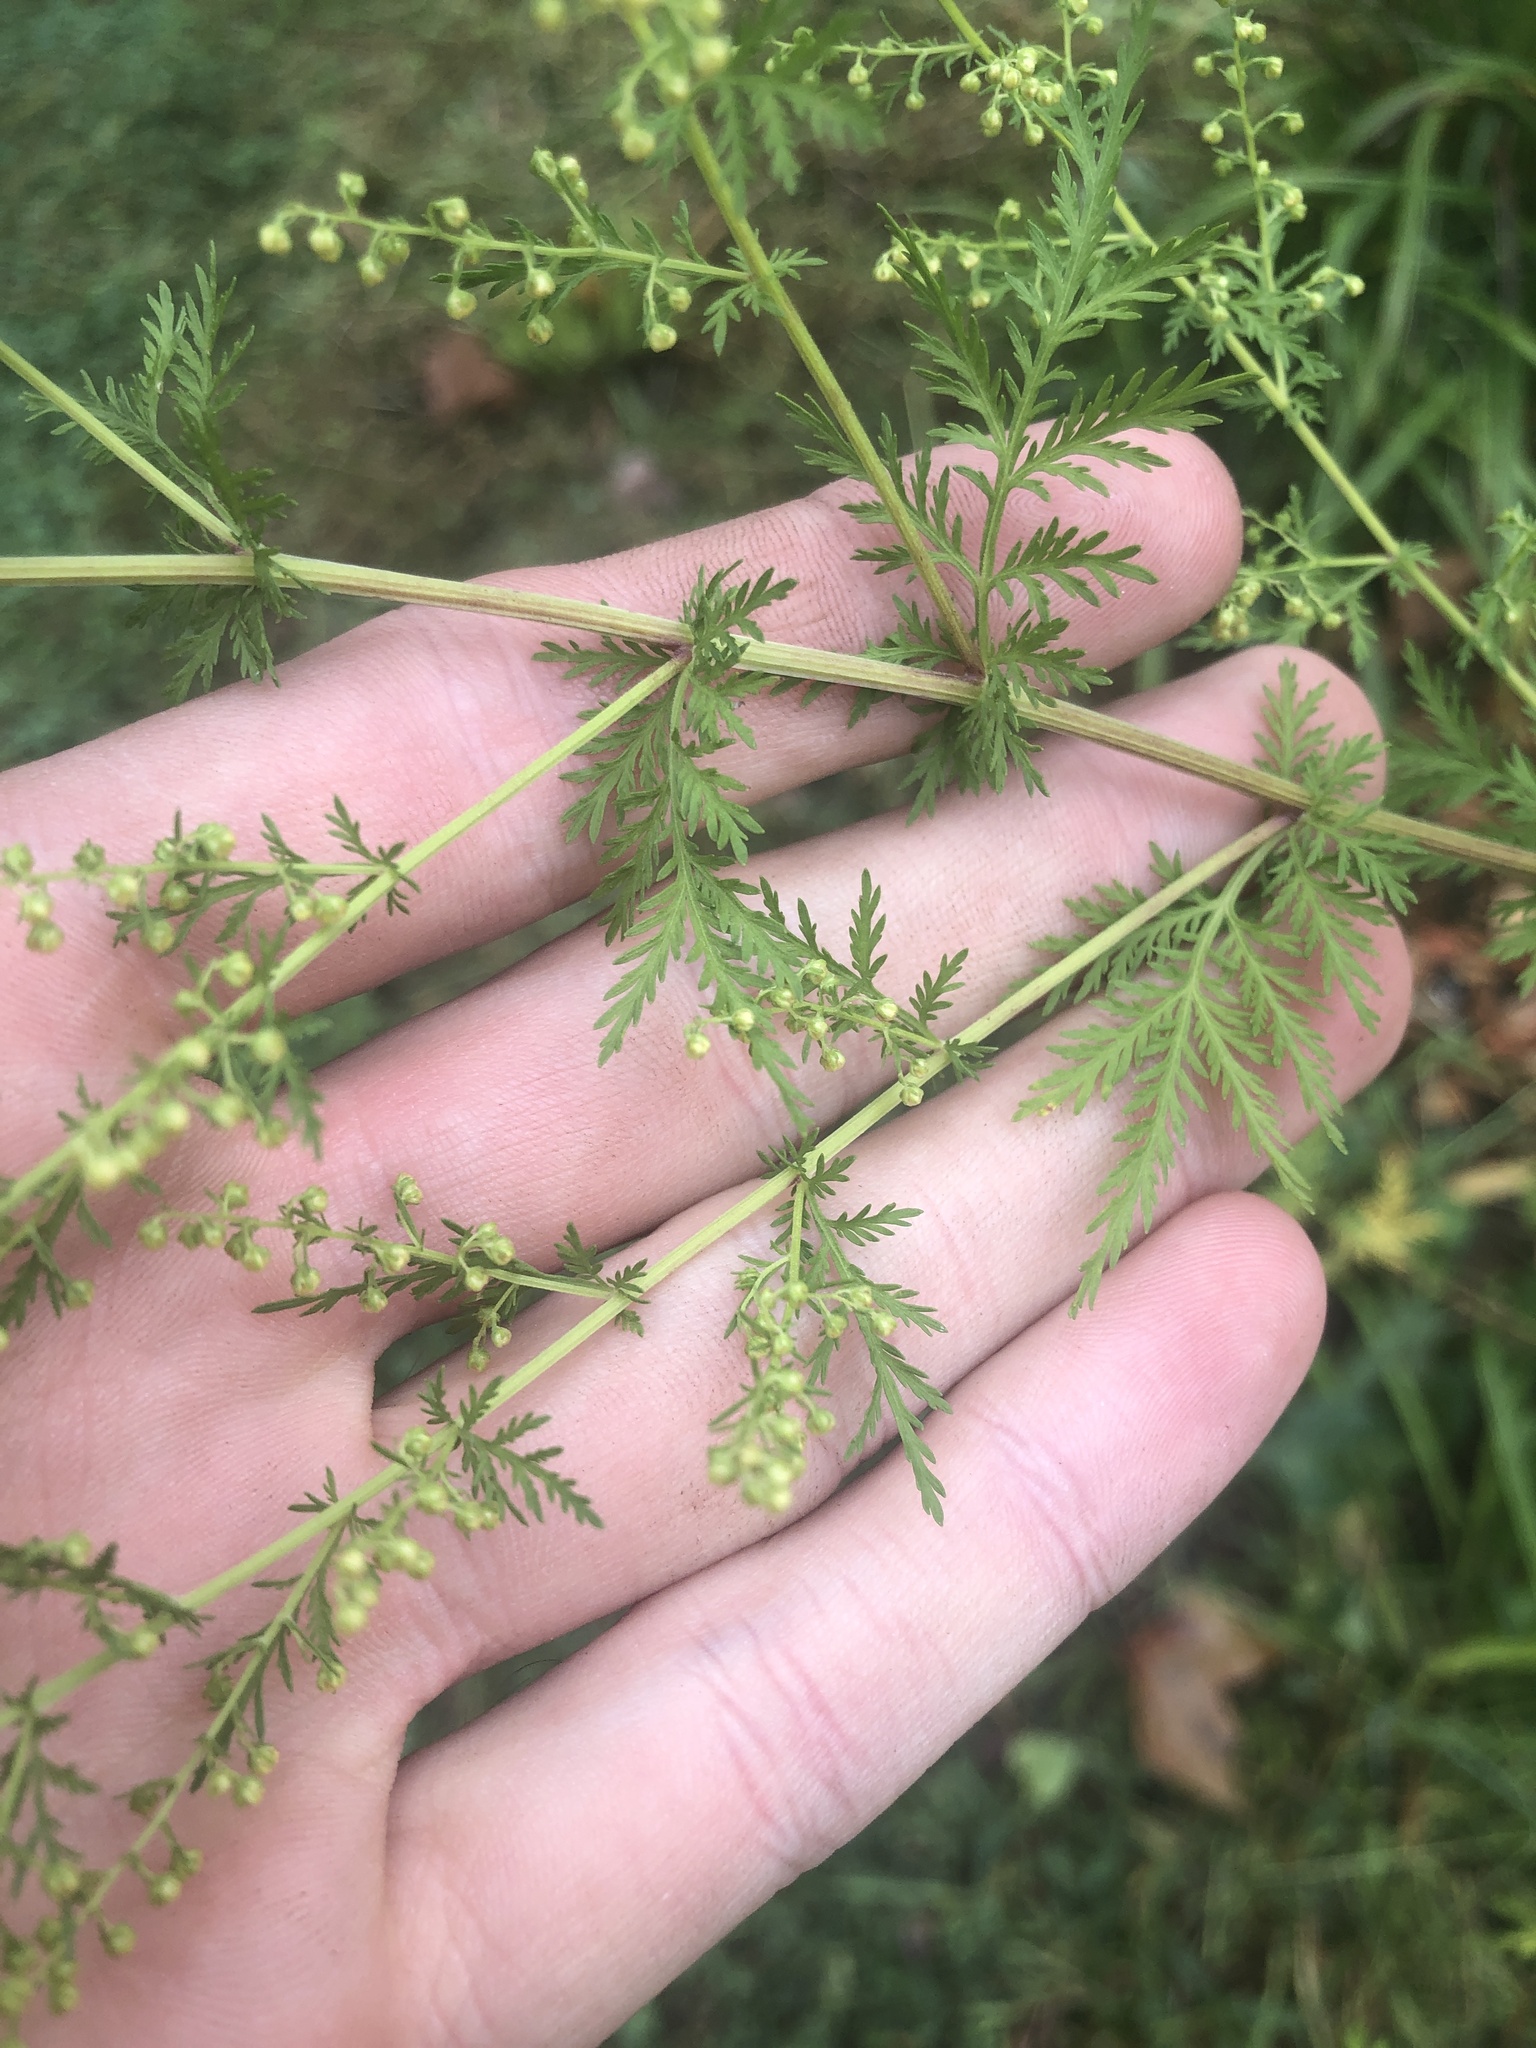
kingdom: Plantae
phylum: Tracheophyta
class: Magnoliopsida
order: Asterales
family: Asteraceae
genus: Artemisia
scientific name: Artemisia annua
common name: Sweet sagewort
